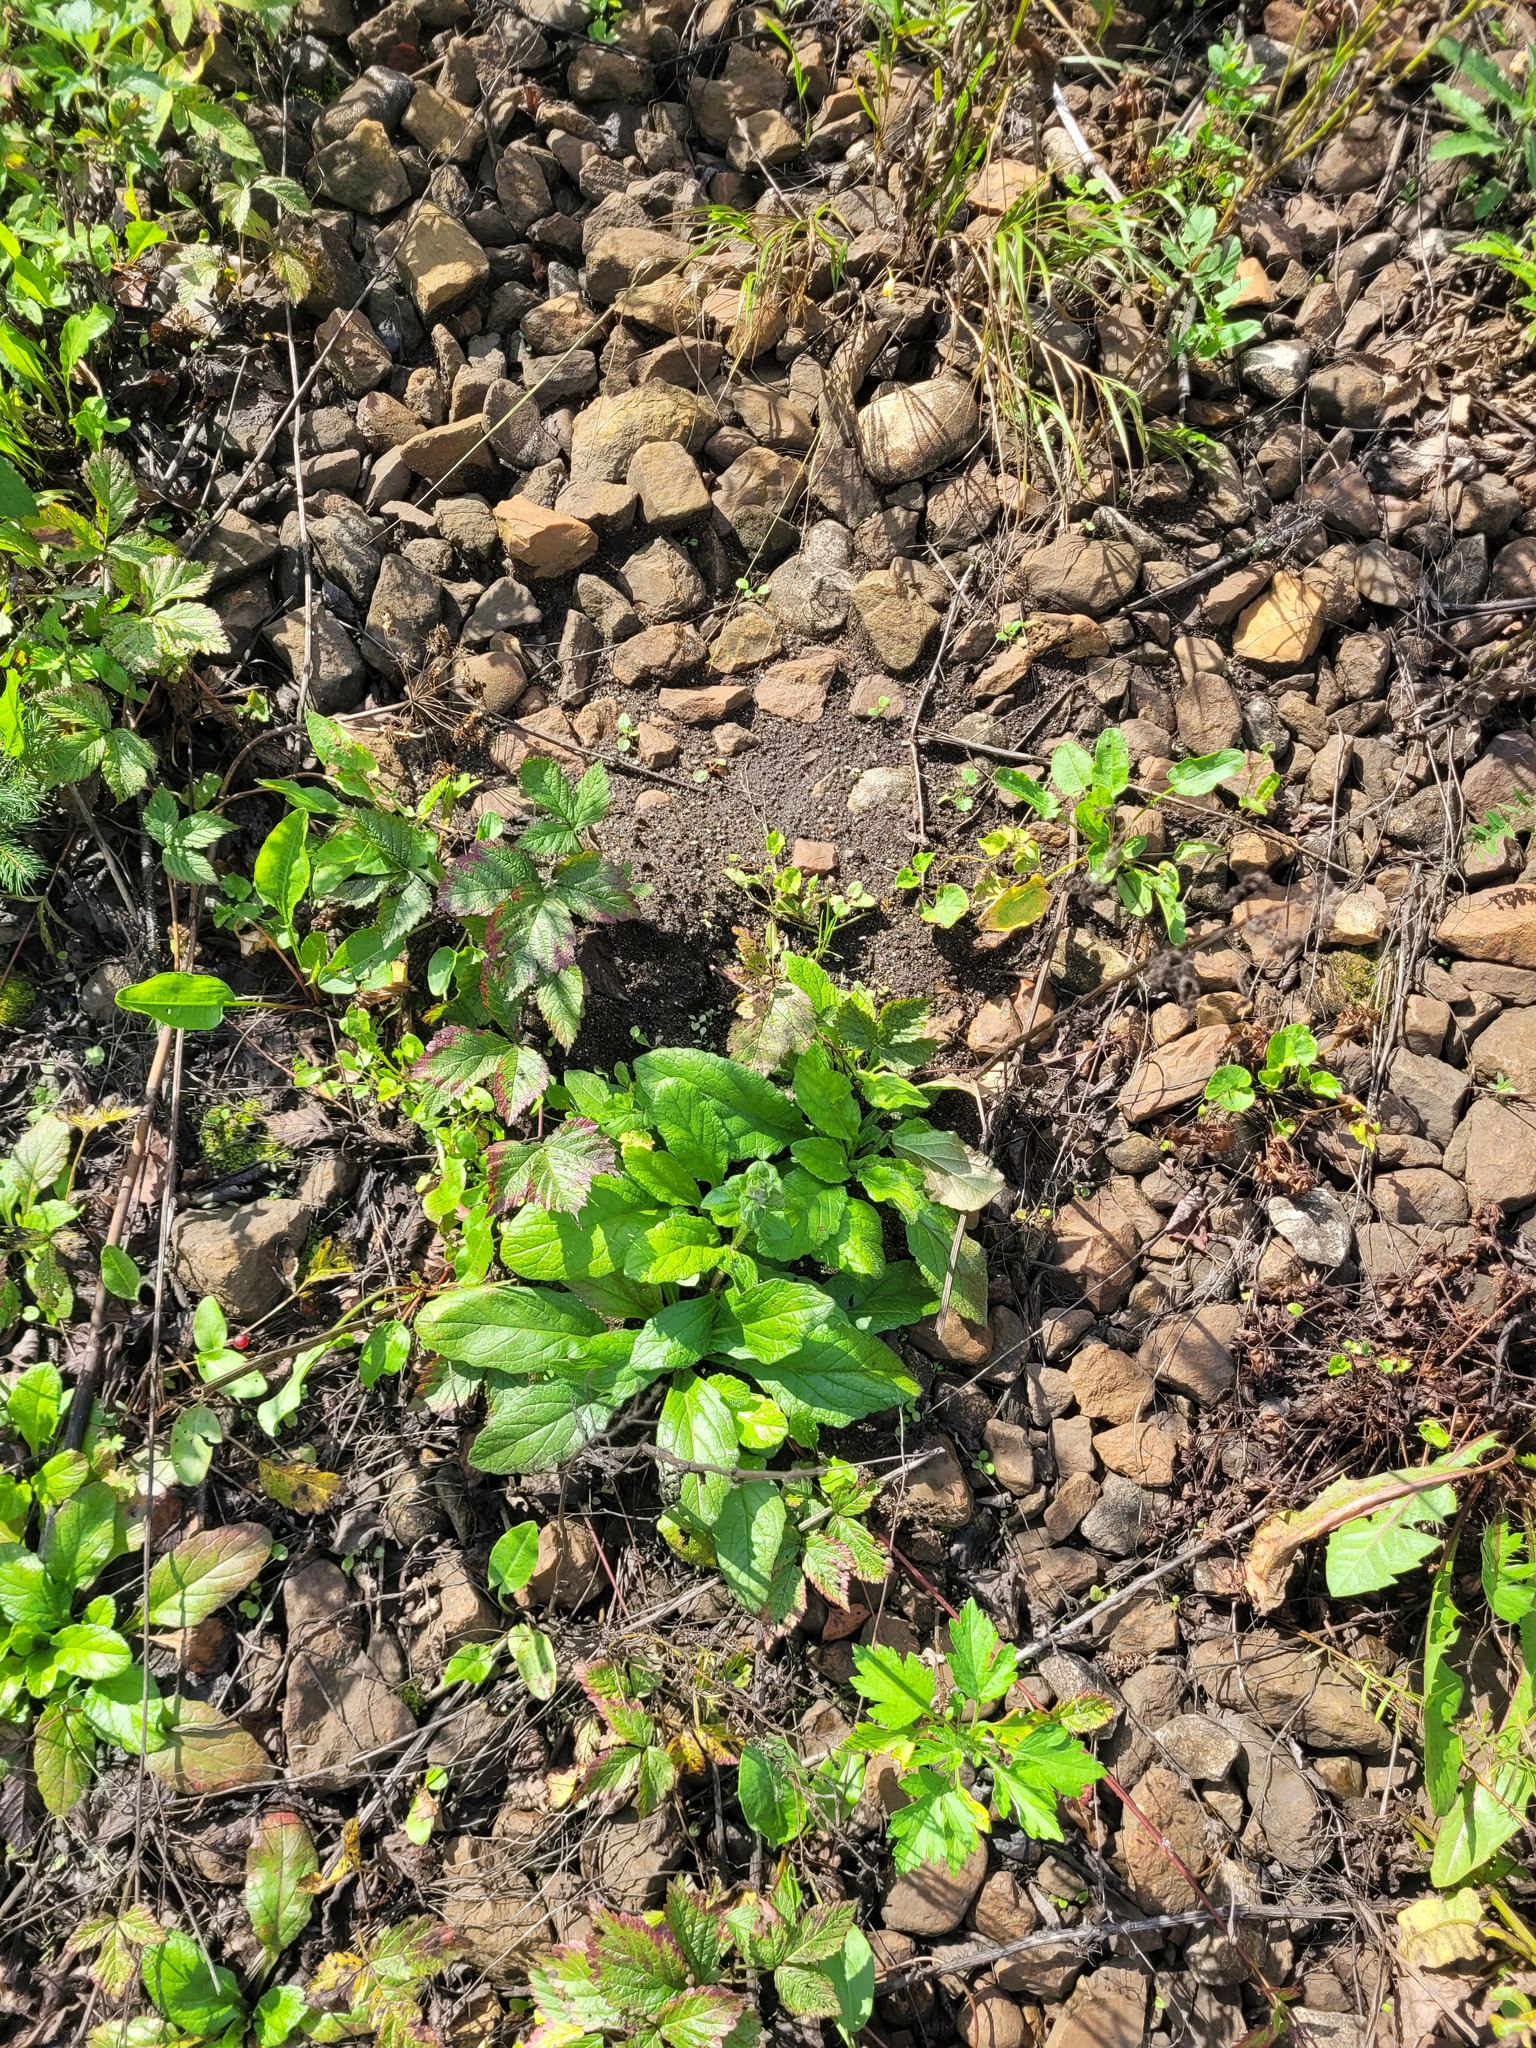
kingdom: Plantae
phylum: Tracheophyta
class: Magnoliopsida
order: Lamiales
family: Lamiaceae
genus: Ajuga
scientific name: Ajuga reptans
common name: Bugle
